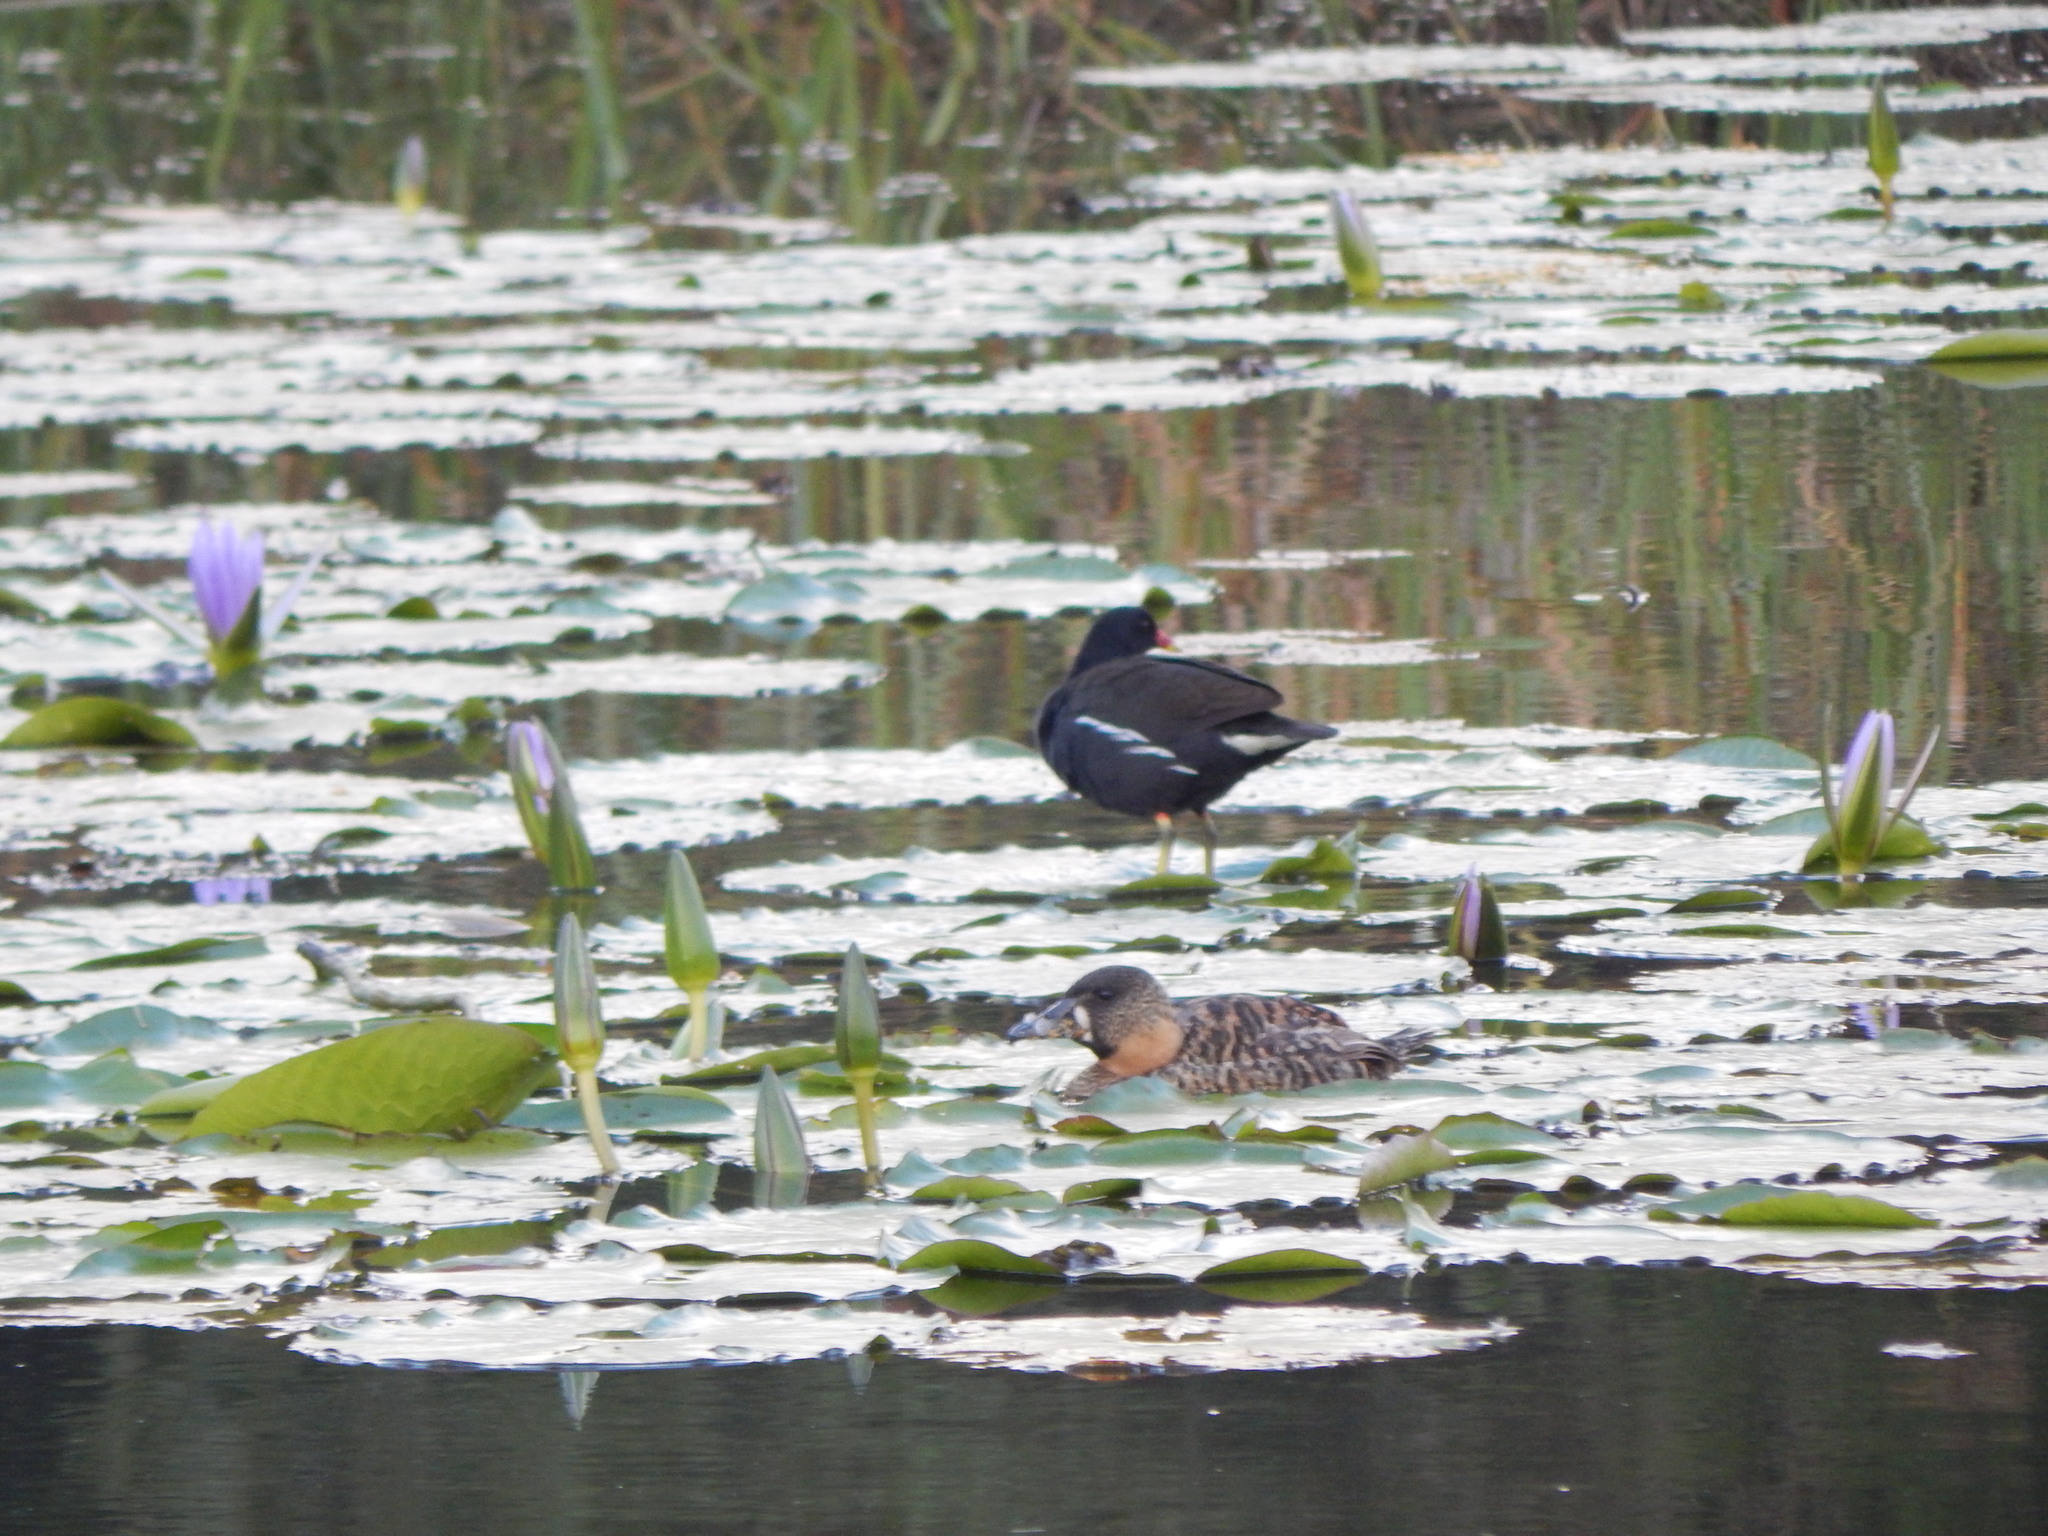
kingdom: Animalia
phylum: Chordata
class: Aves
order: Anseriformes
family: Anatidae
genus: Thalassornis
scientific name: Thalassornis leuconotus
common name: White-backed duck
